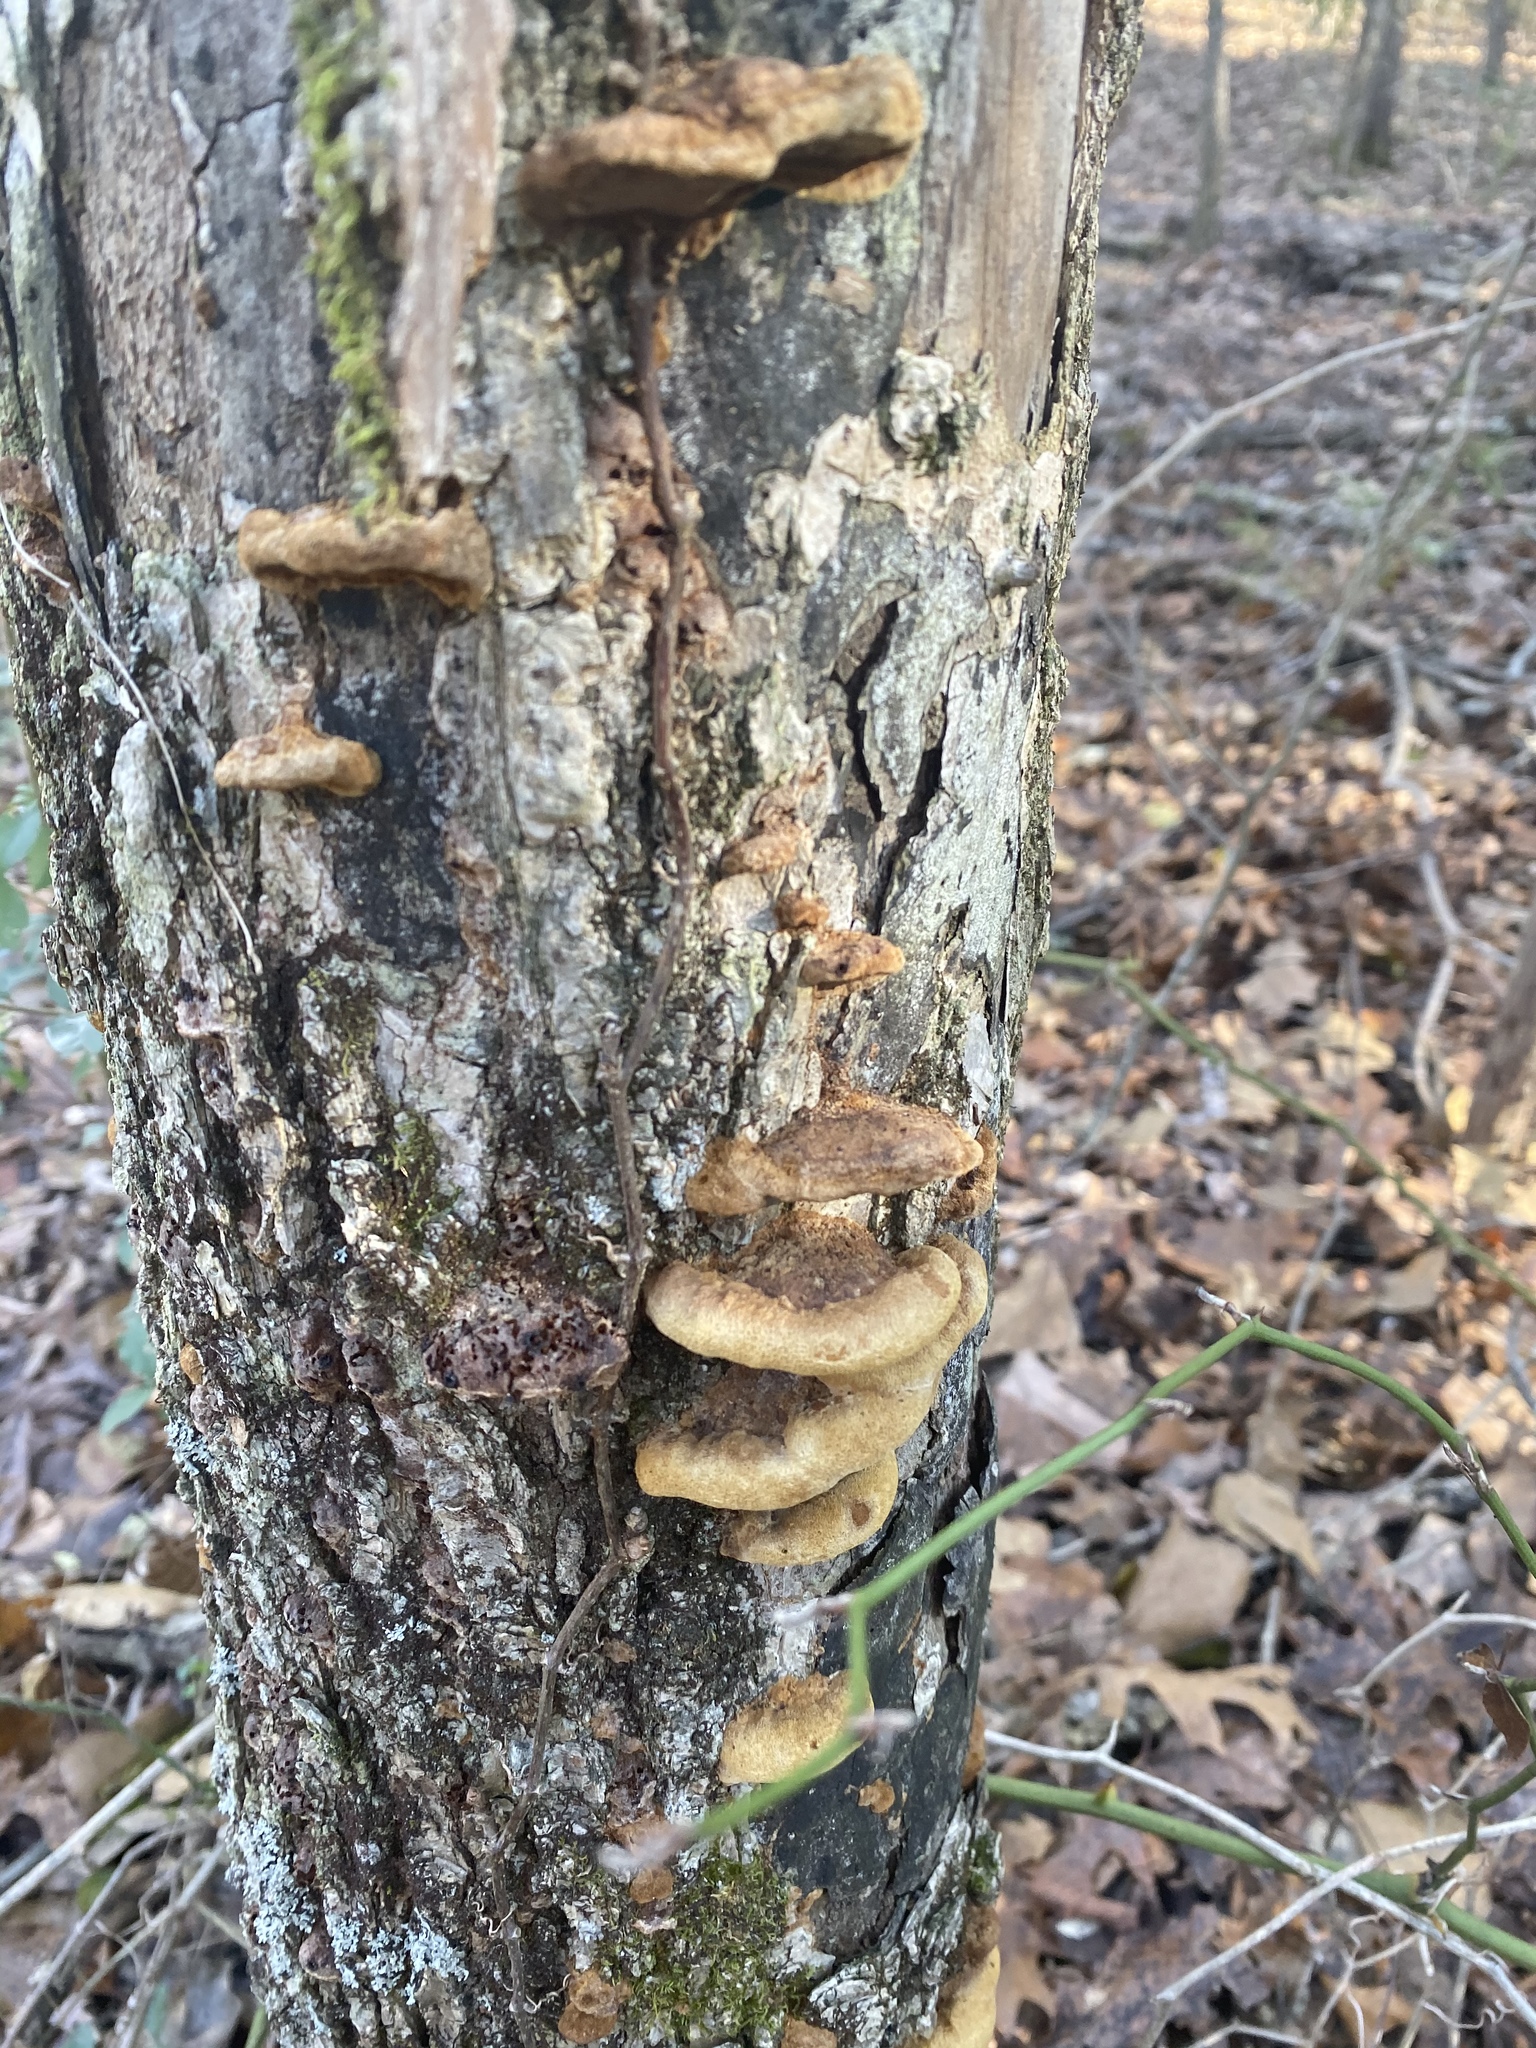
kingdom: Fungi
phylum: Basidiomycota
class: Agaricomycetes
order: Hymenochaetales
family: Hymenochaetaceae
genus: Phellinus
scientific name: Phellinus gilvus
